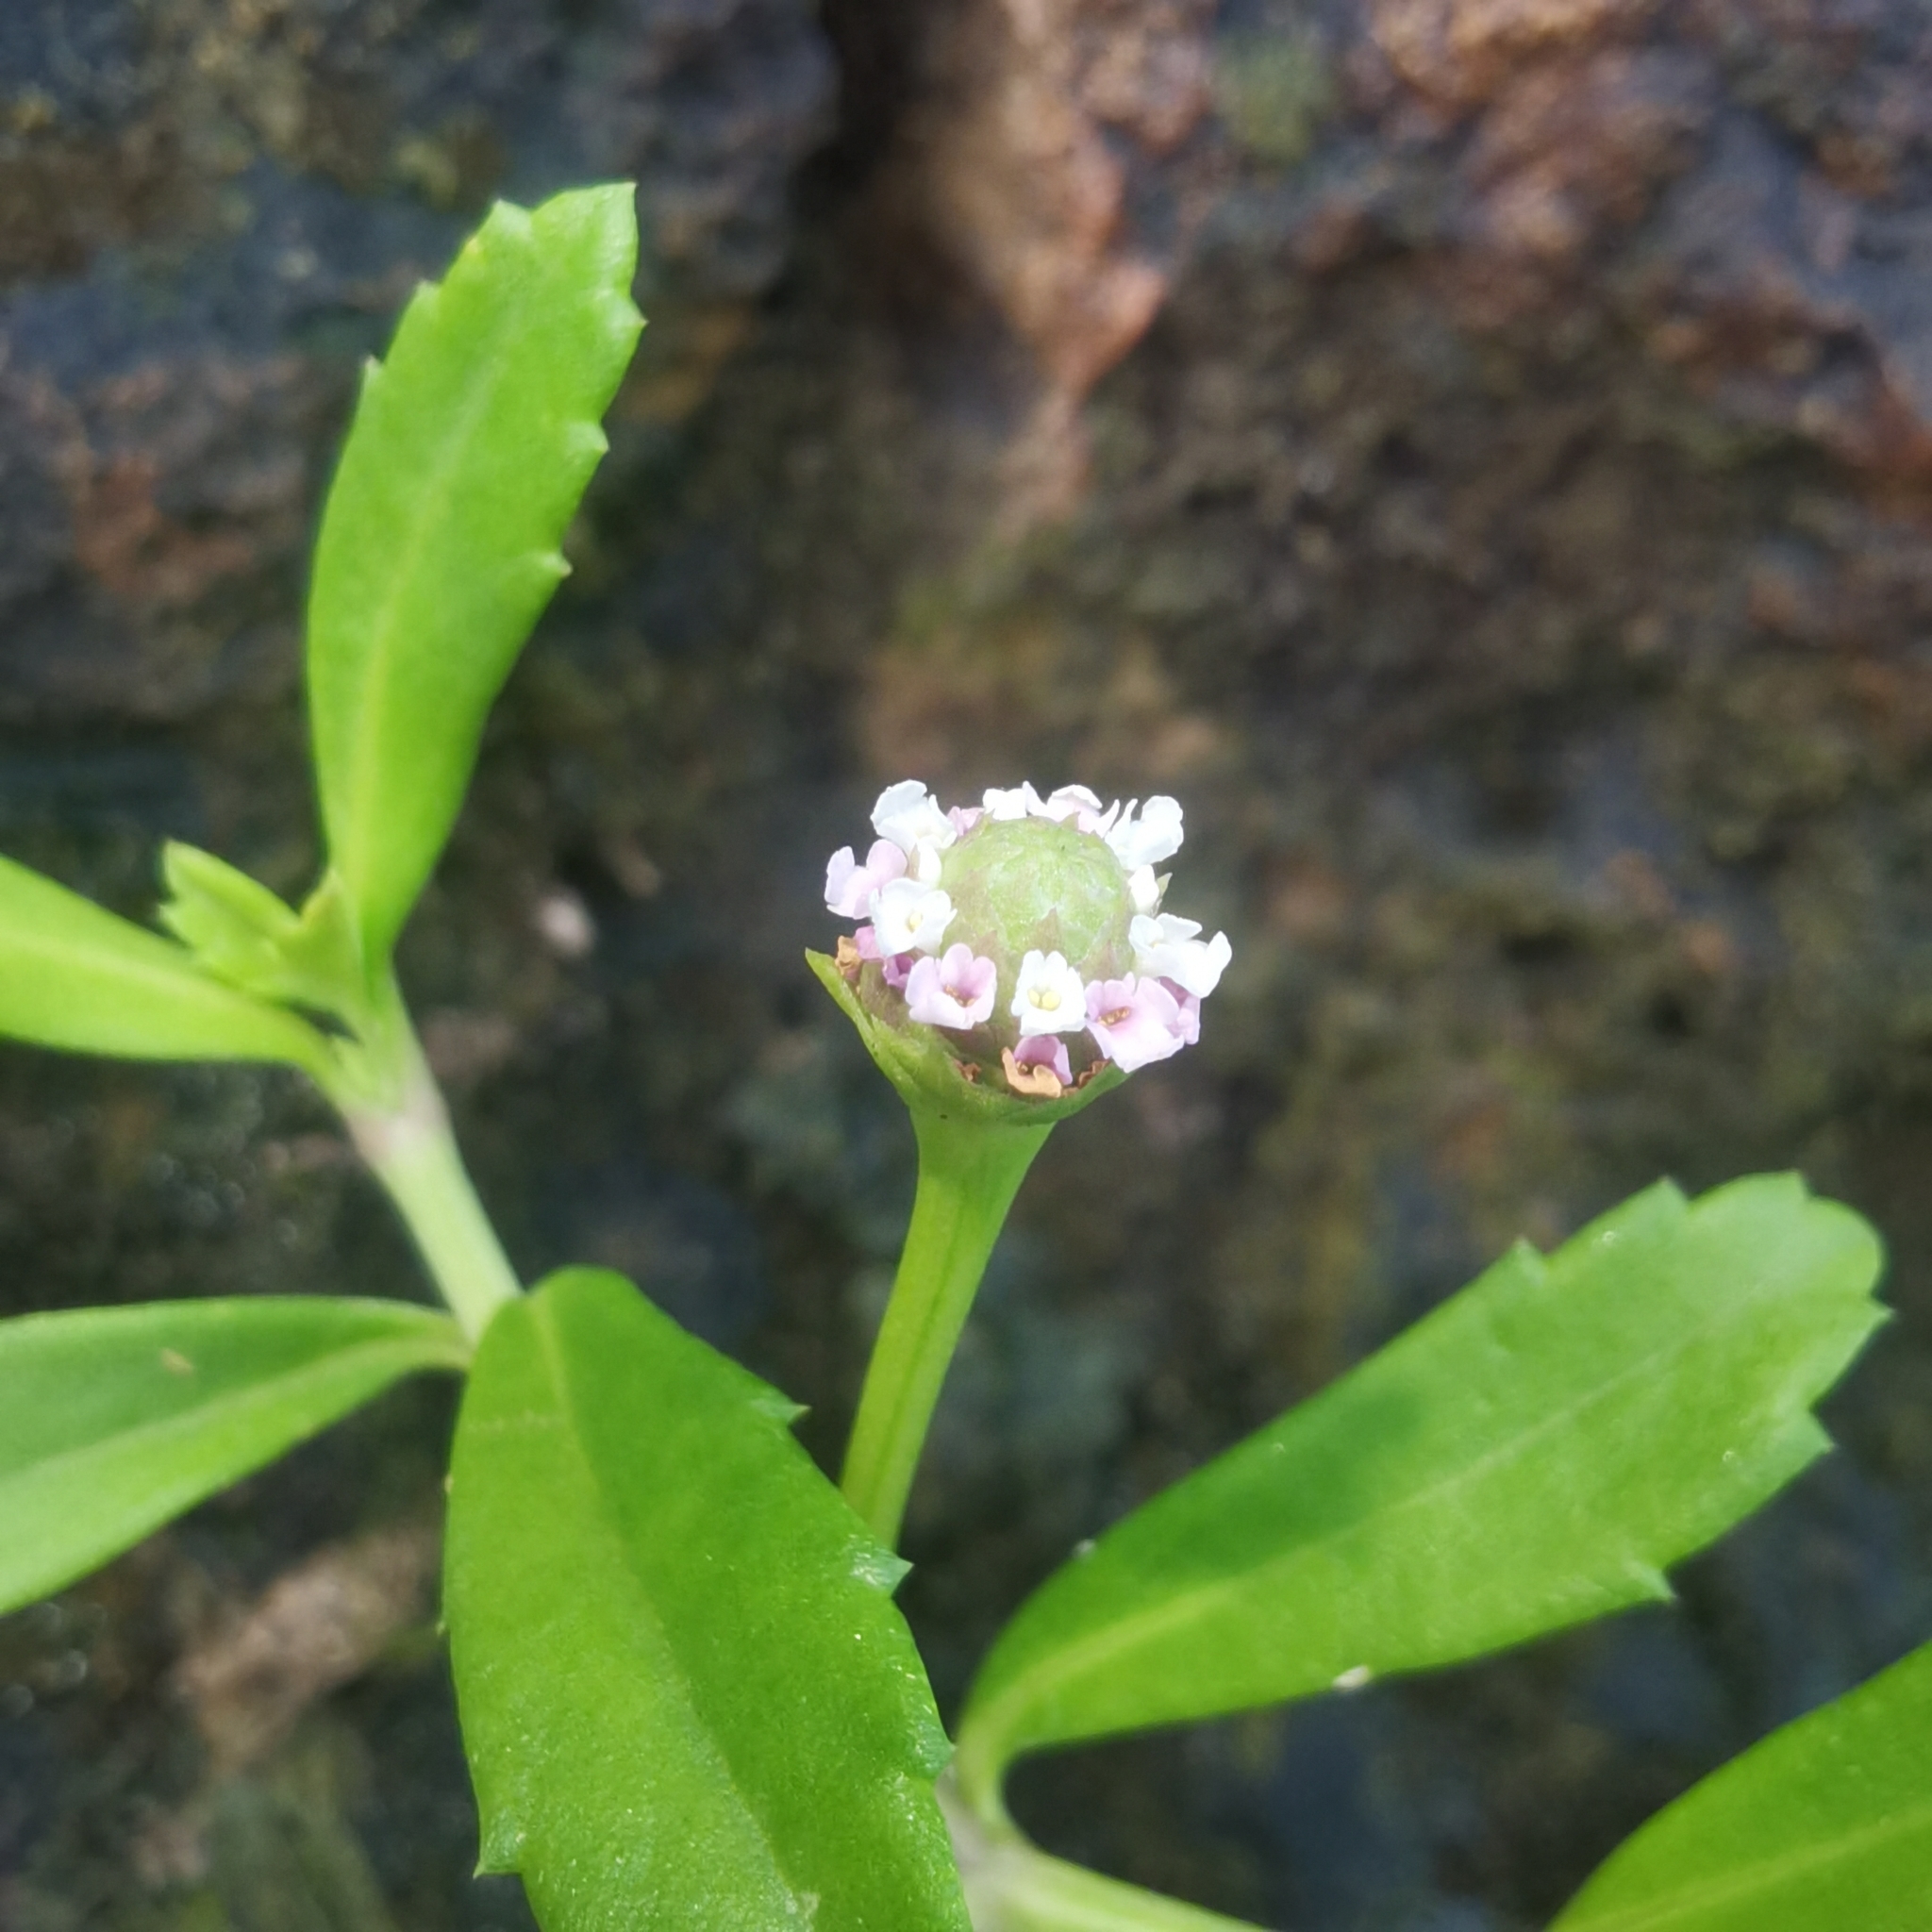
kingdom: Plantae
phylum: Tracheophyta
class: Magnoliopsida
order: Lamiales
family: Verbenaceae
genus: Phyla
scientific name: Phyla nodiflora
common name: Frogfruit
